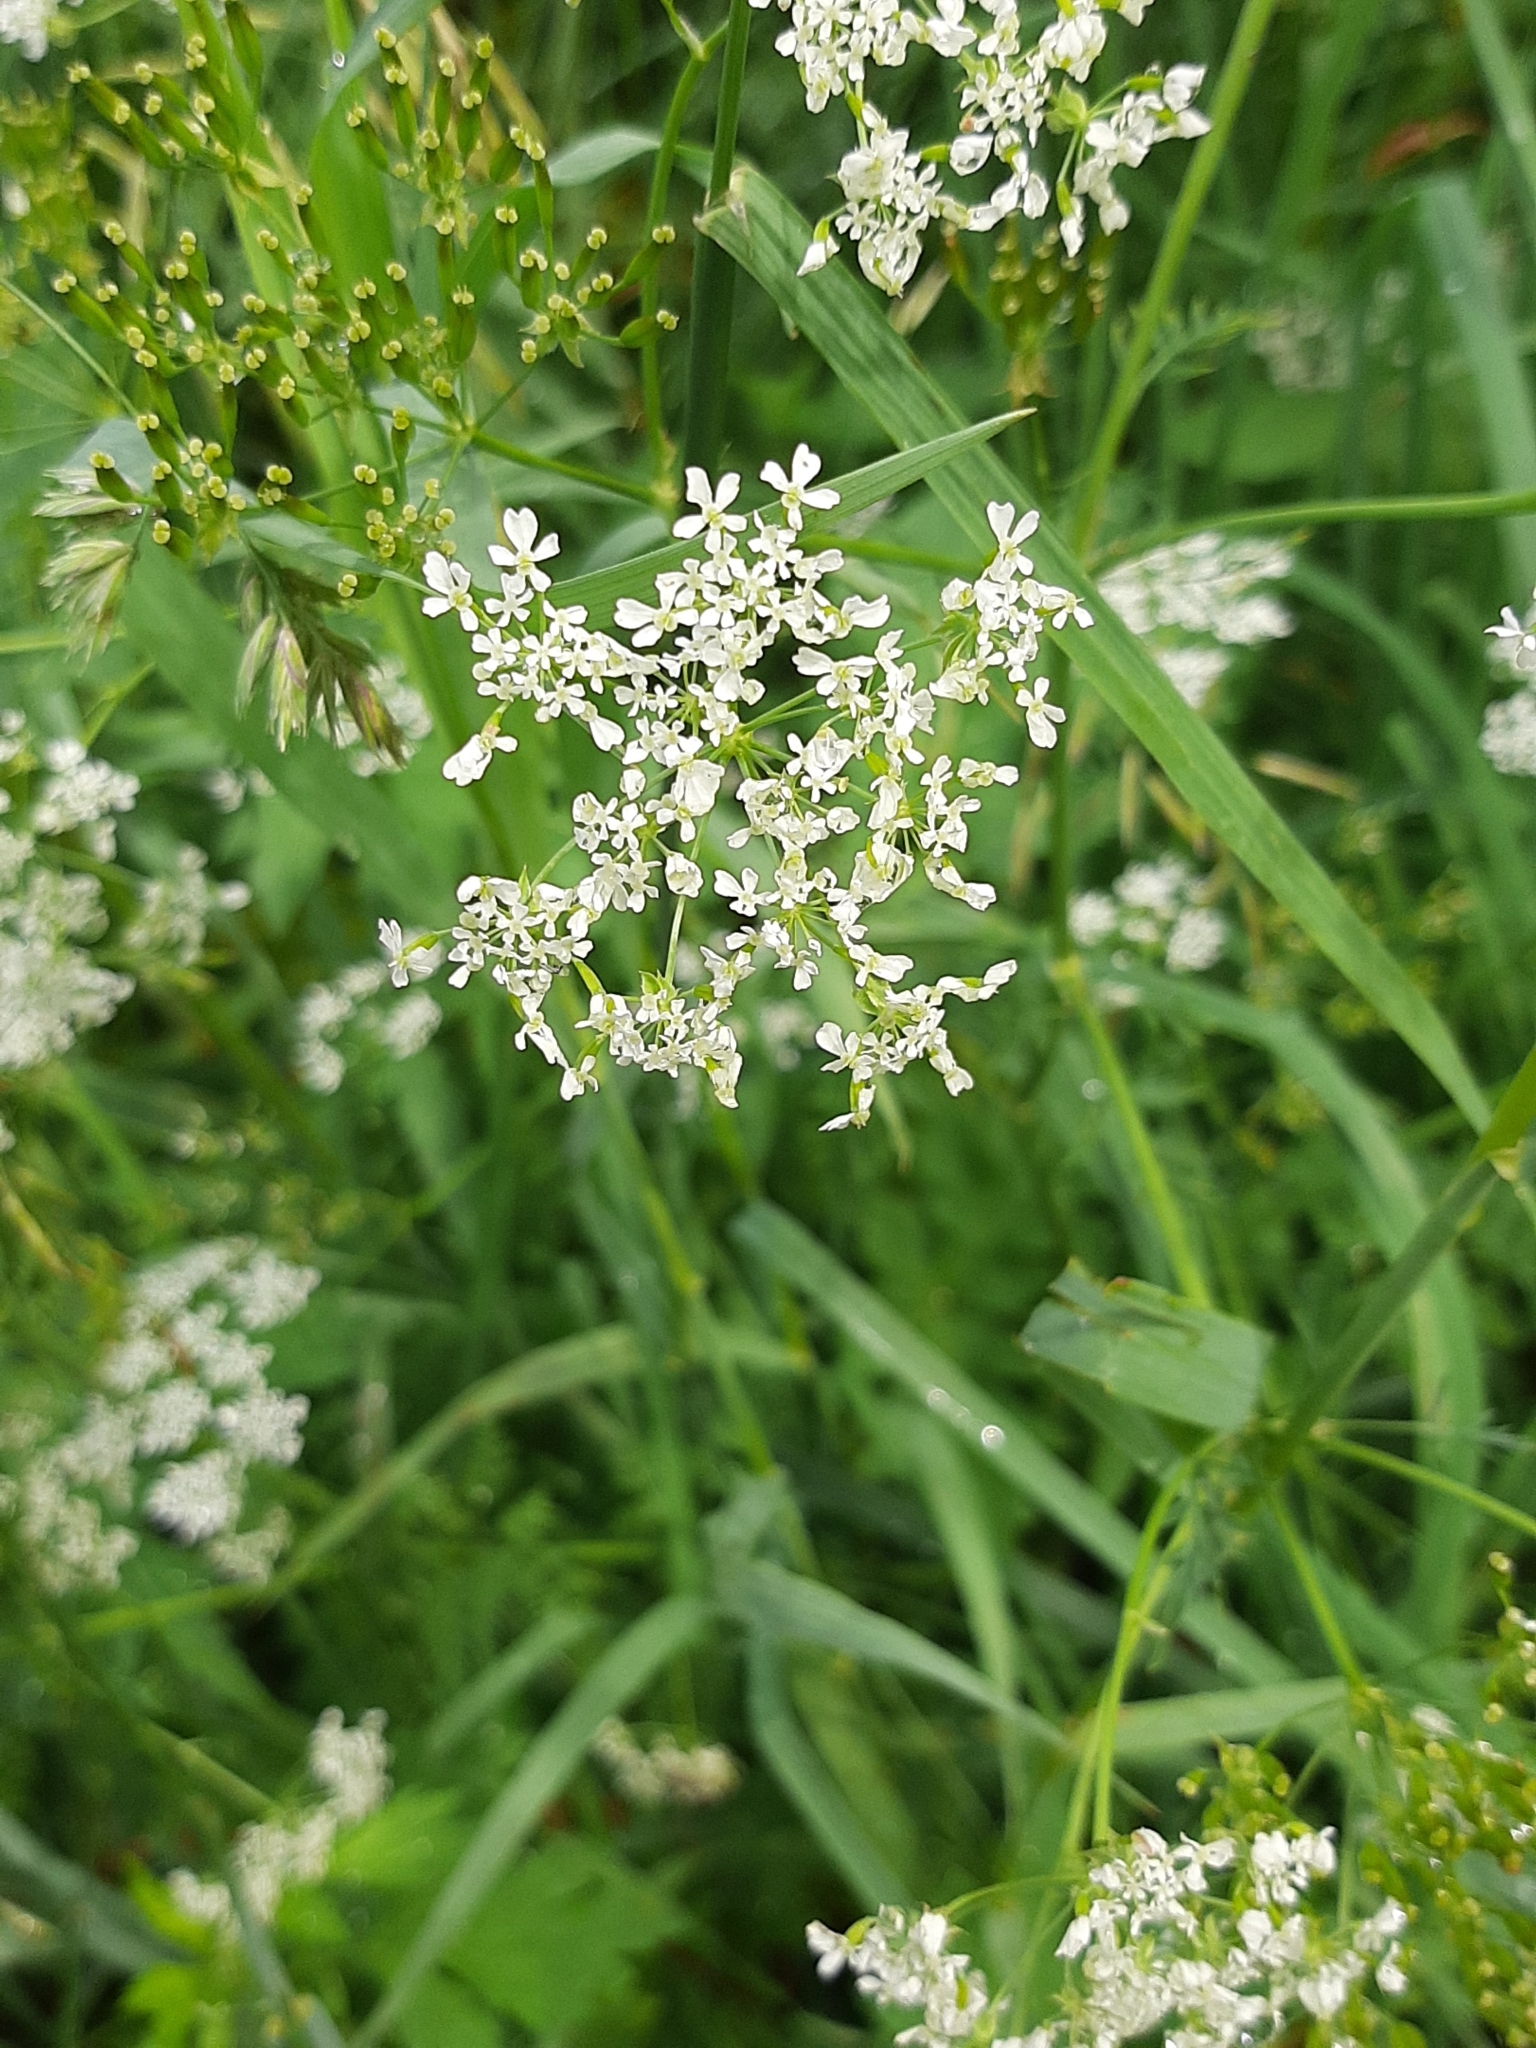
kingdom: Plantae
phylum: Tracheophyta
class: Magnoliopsida
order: Apiales
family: Apiaceae
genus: Anthriscus
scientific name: Anthriscus sylvestris
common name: Cow parsley
